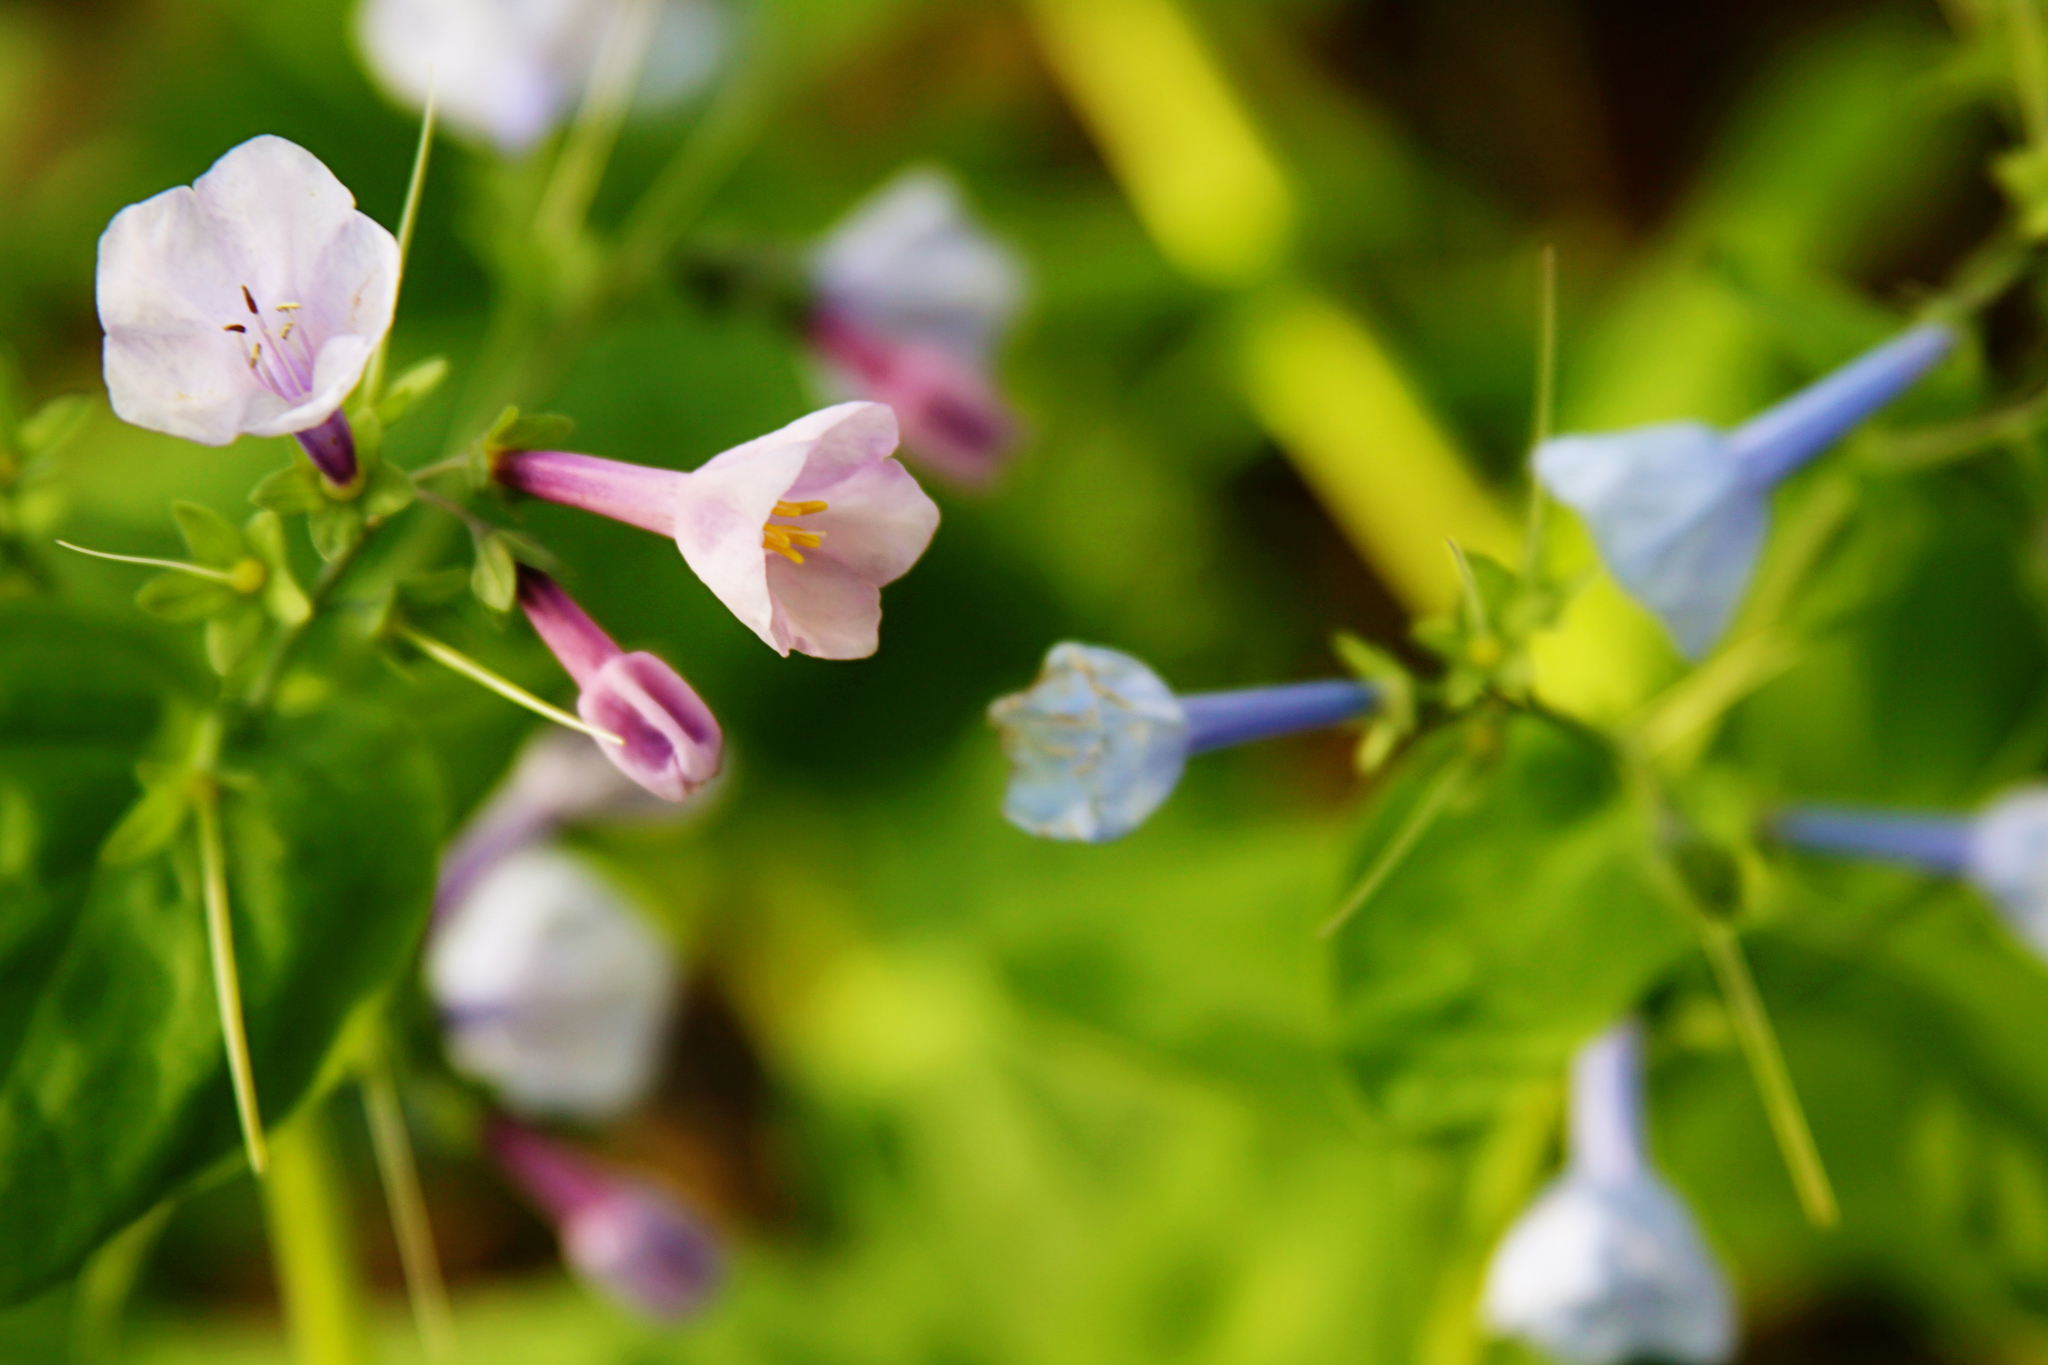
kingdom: Plantae
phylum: Tracheophyta
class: Magnoliopsida
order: Boraginales
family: Boraginaceae
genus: Mertensia
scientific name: Mertensia virginica
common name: Virginia bluebells
